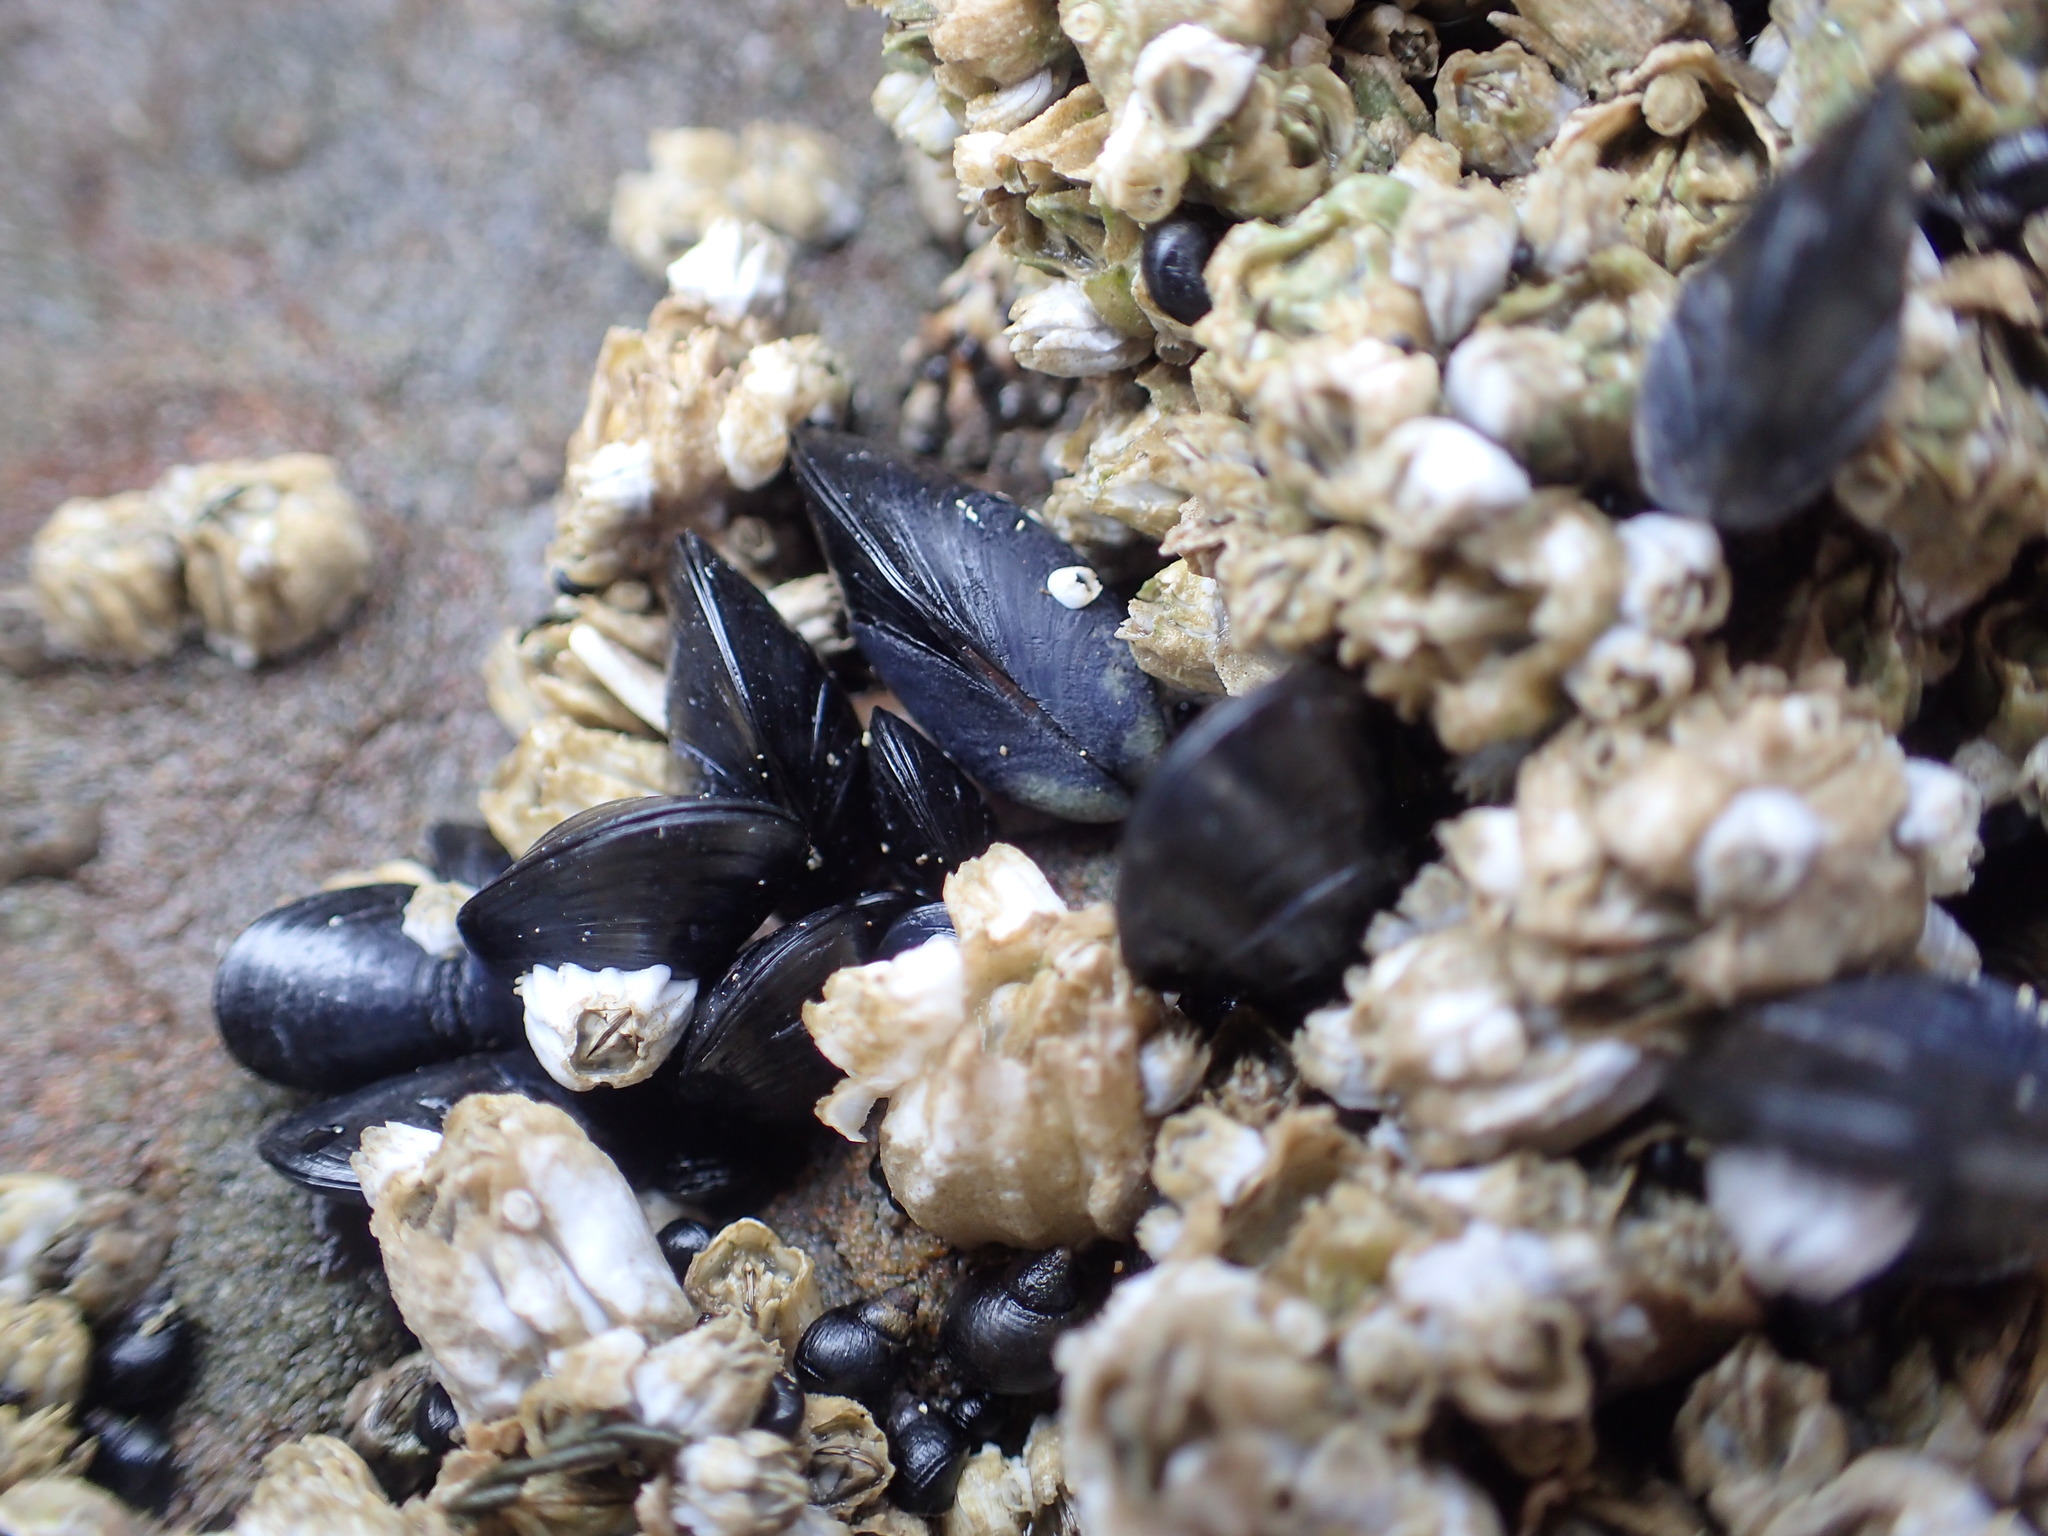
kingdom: Animalia
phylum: Mollusca
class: Bivalvia
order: Mytilida
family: Mytilidae
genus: Mytilus
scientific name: Mytilus trossulus
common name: Northern blue mussel
